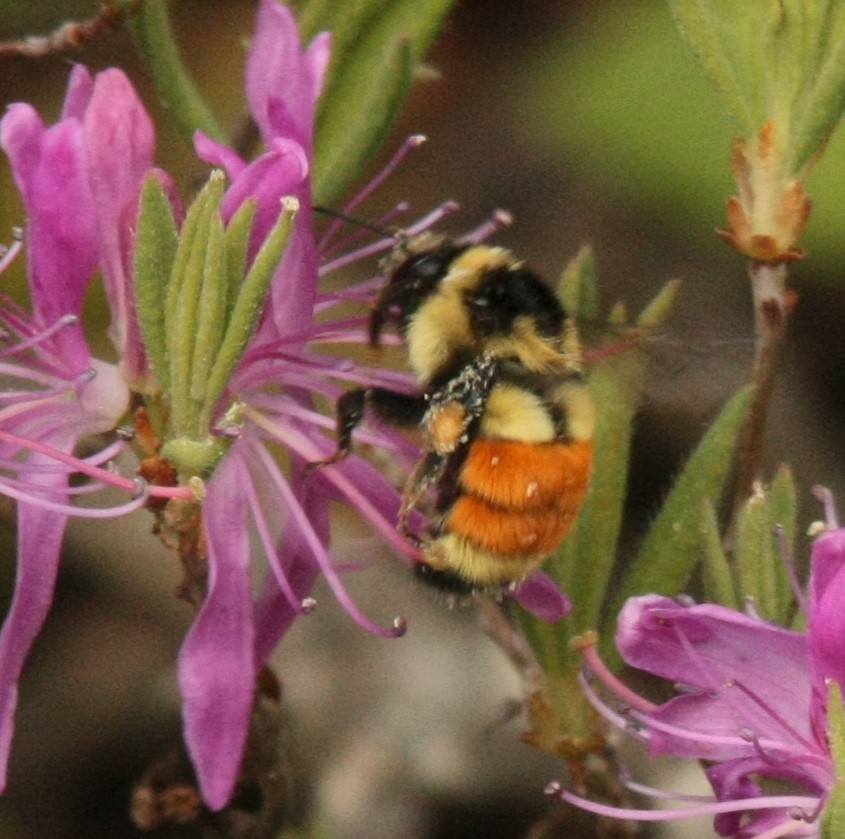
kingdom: Animalia
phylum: Arthropoda
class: Insecta
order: Hymenoptera
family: Apidae
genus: Bombus
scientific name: Bombus ternarius
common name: Tri-colored bumble bee
